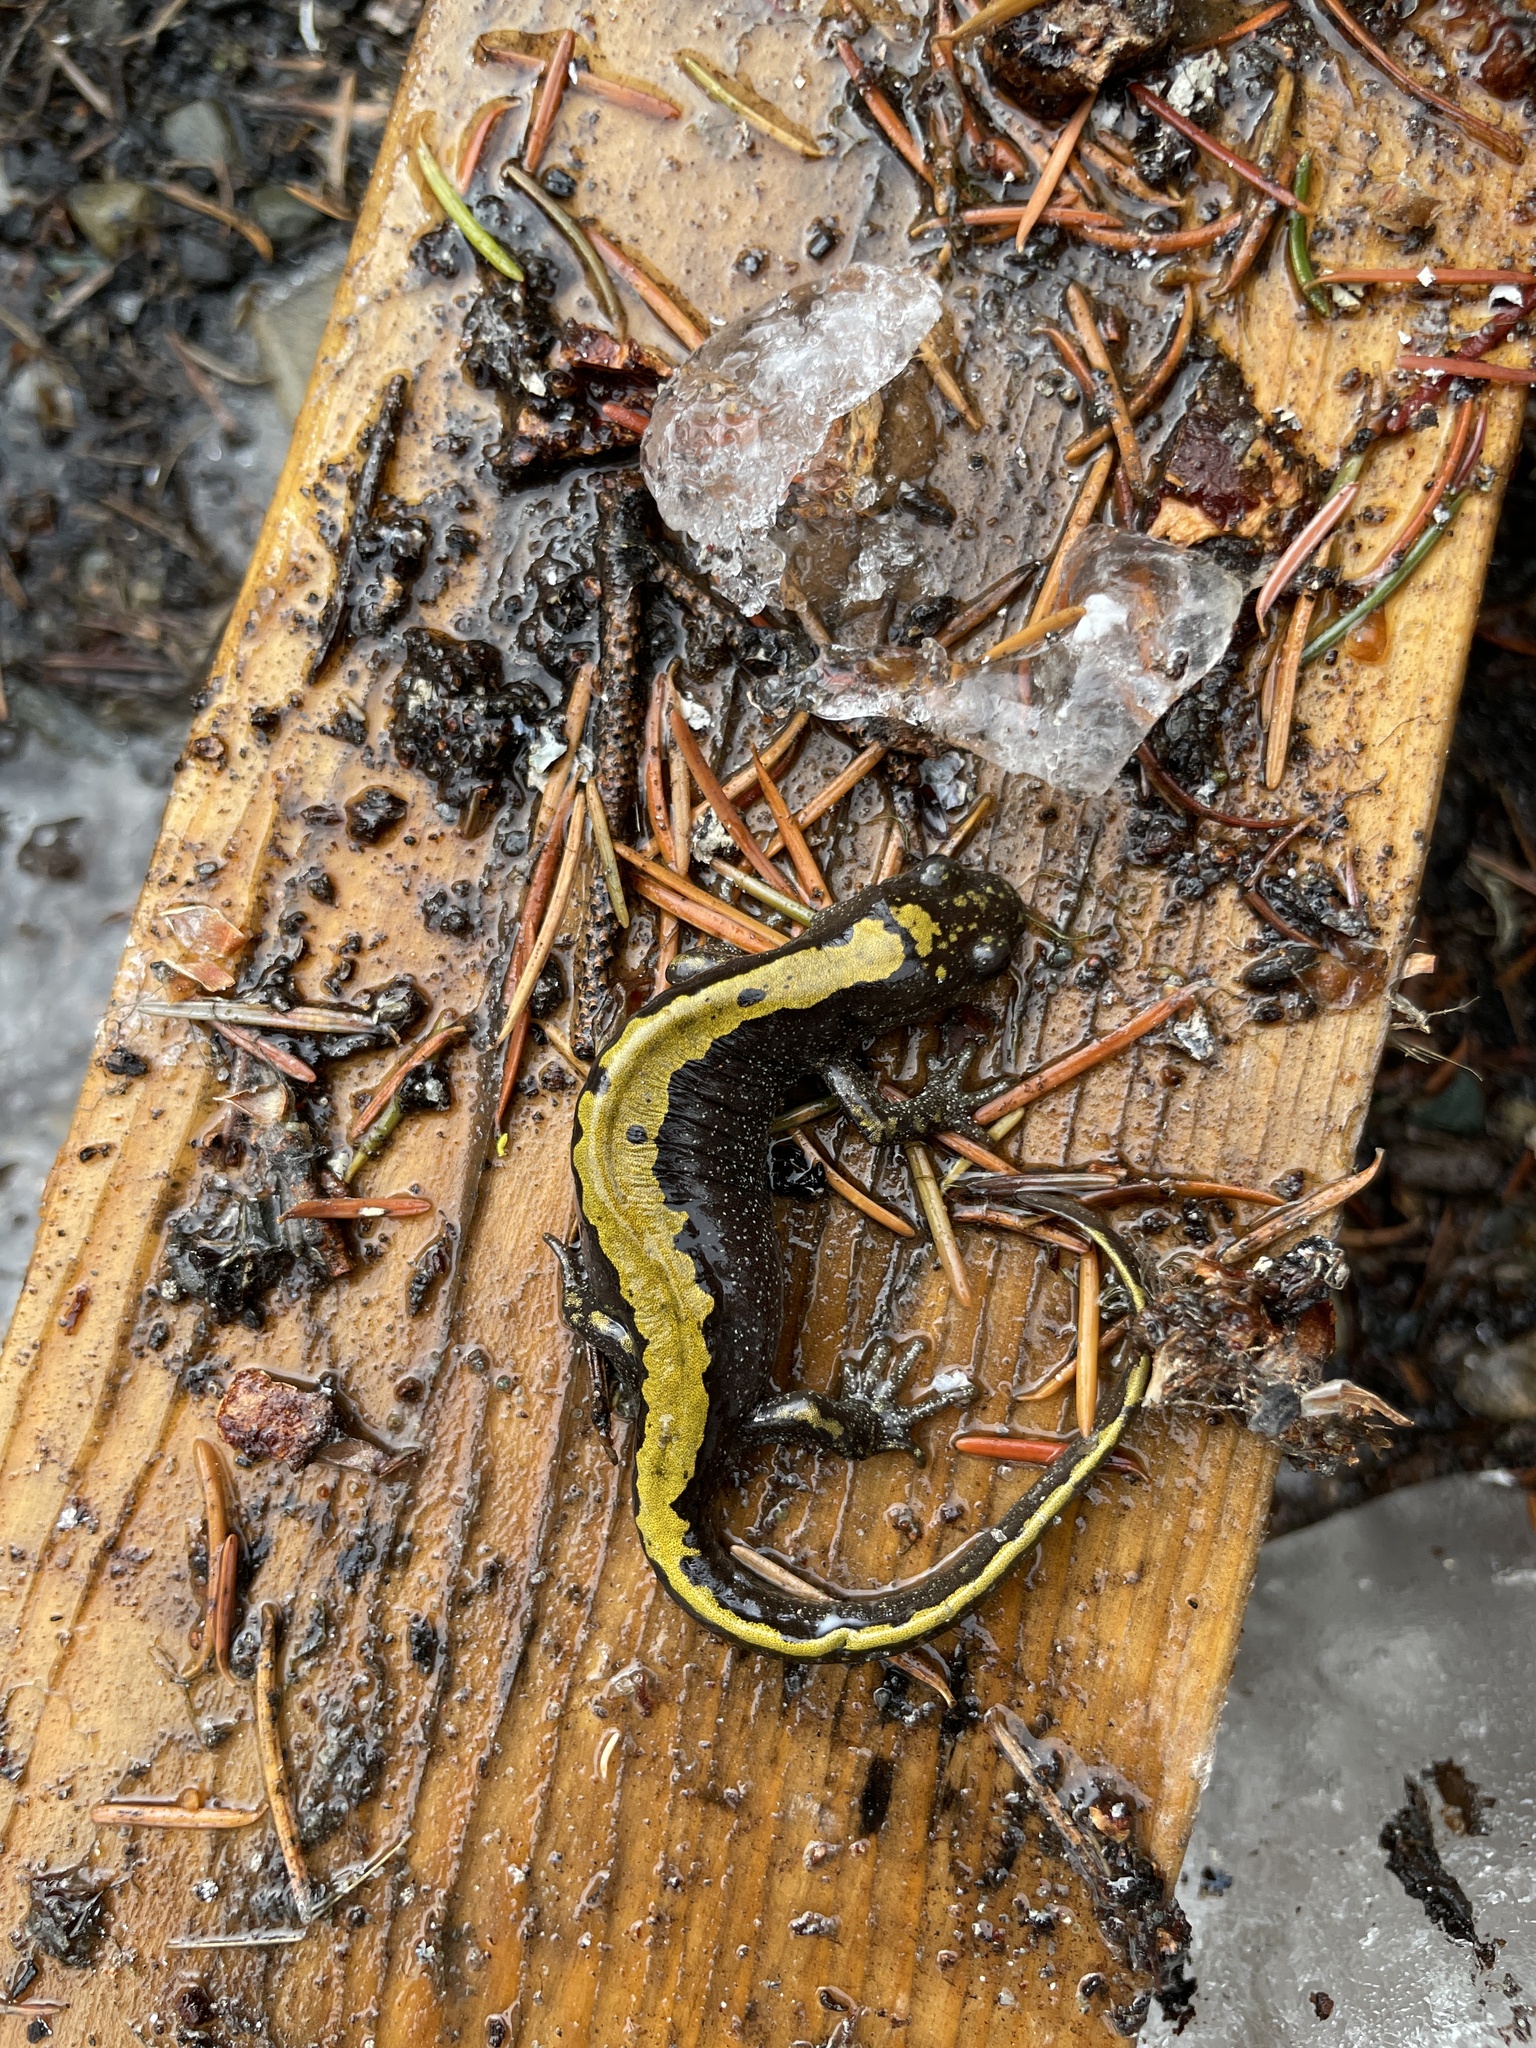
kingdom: Animalia
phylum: Chordata
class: Amphibia
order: Caudata
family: Ambystomatidae
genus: Ambystoma
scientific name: Ambystoma macrodactylum
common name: Long-toed salamander
